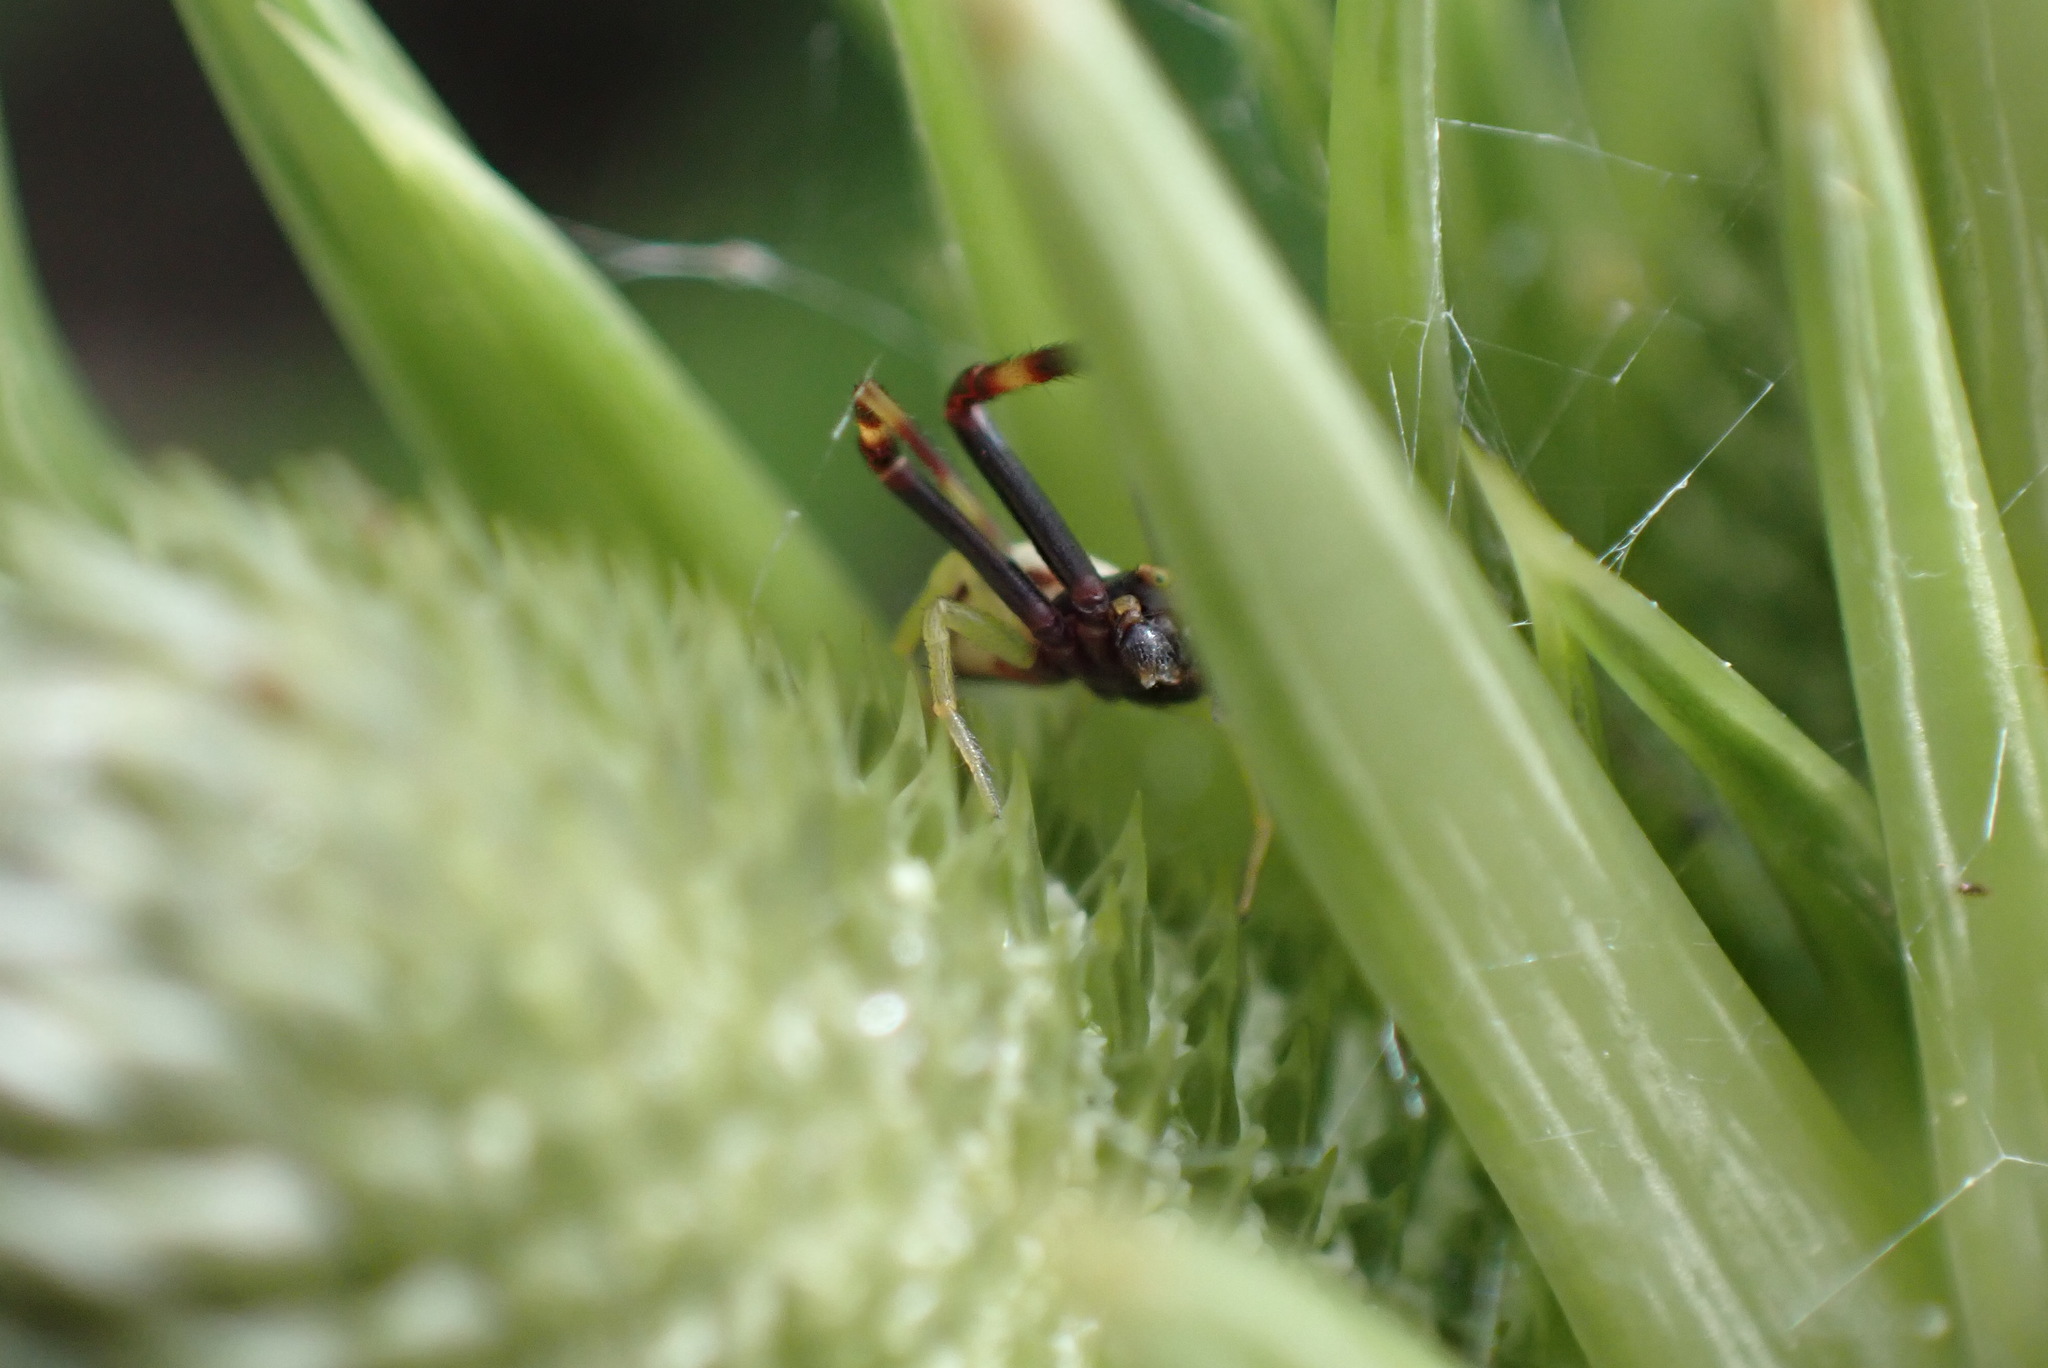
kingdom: Animalia
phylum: Arthropoda
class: Arachnida
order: Araneae
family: Thomisidae
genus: Misumena
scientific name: Misumena vatia
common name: Goldenrod crab spider
